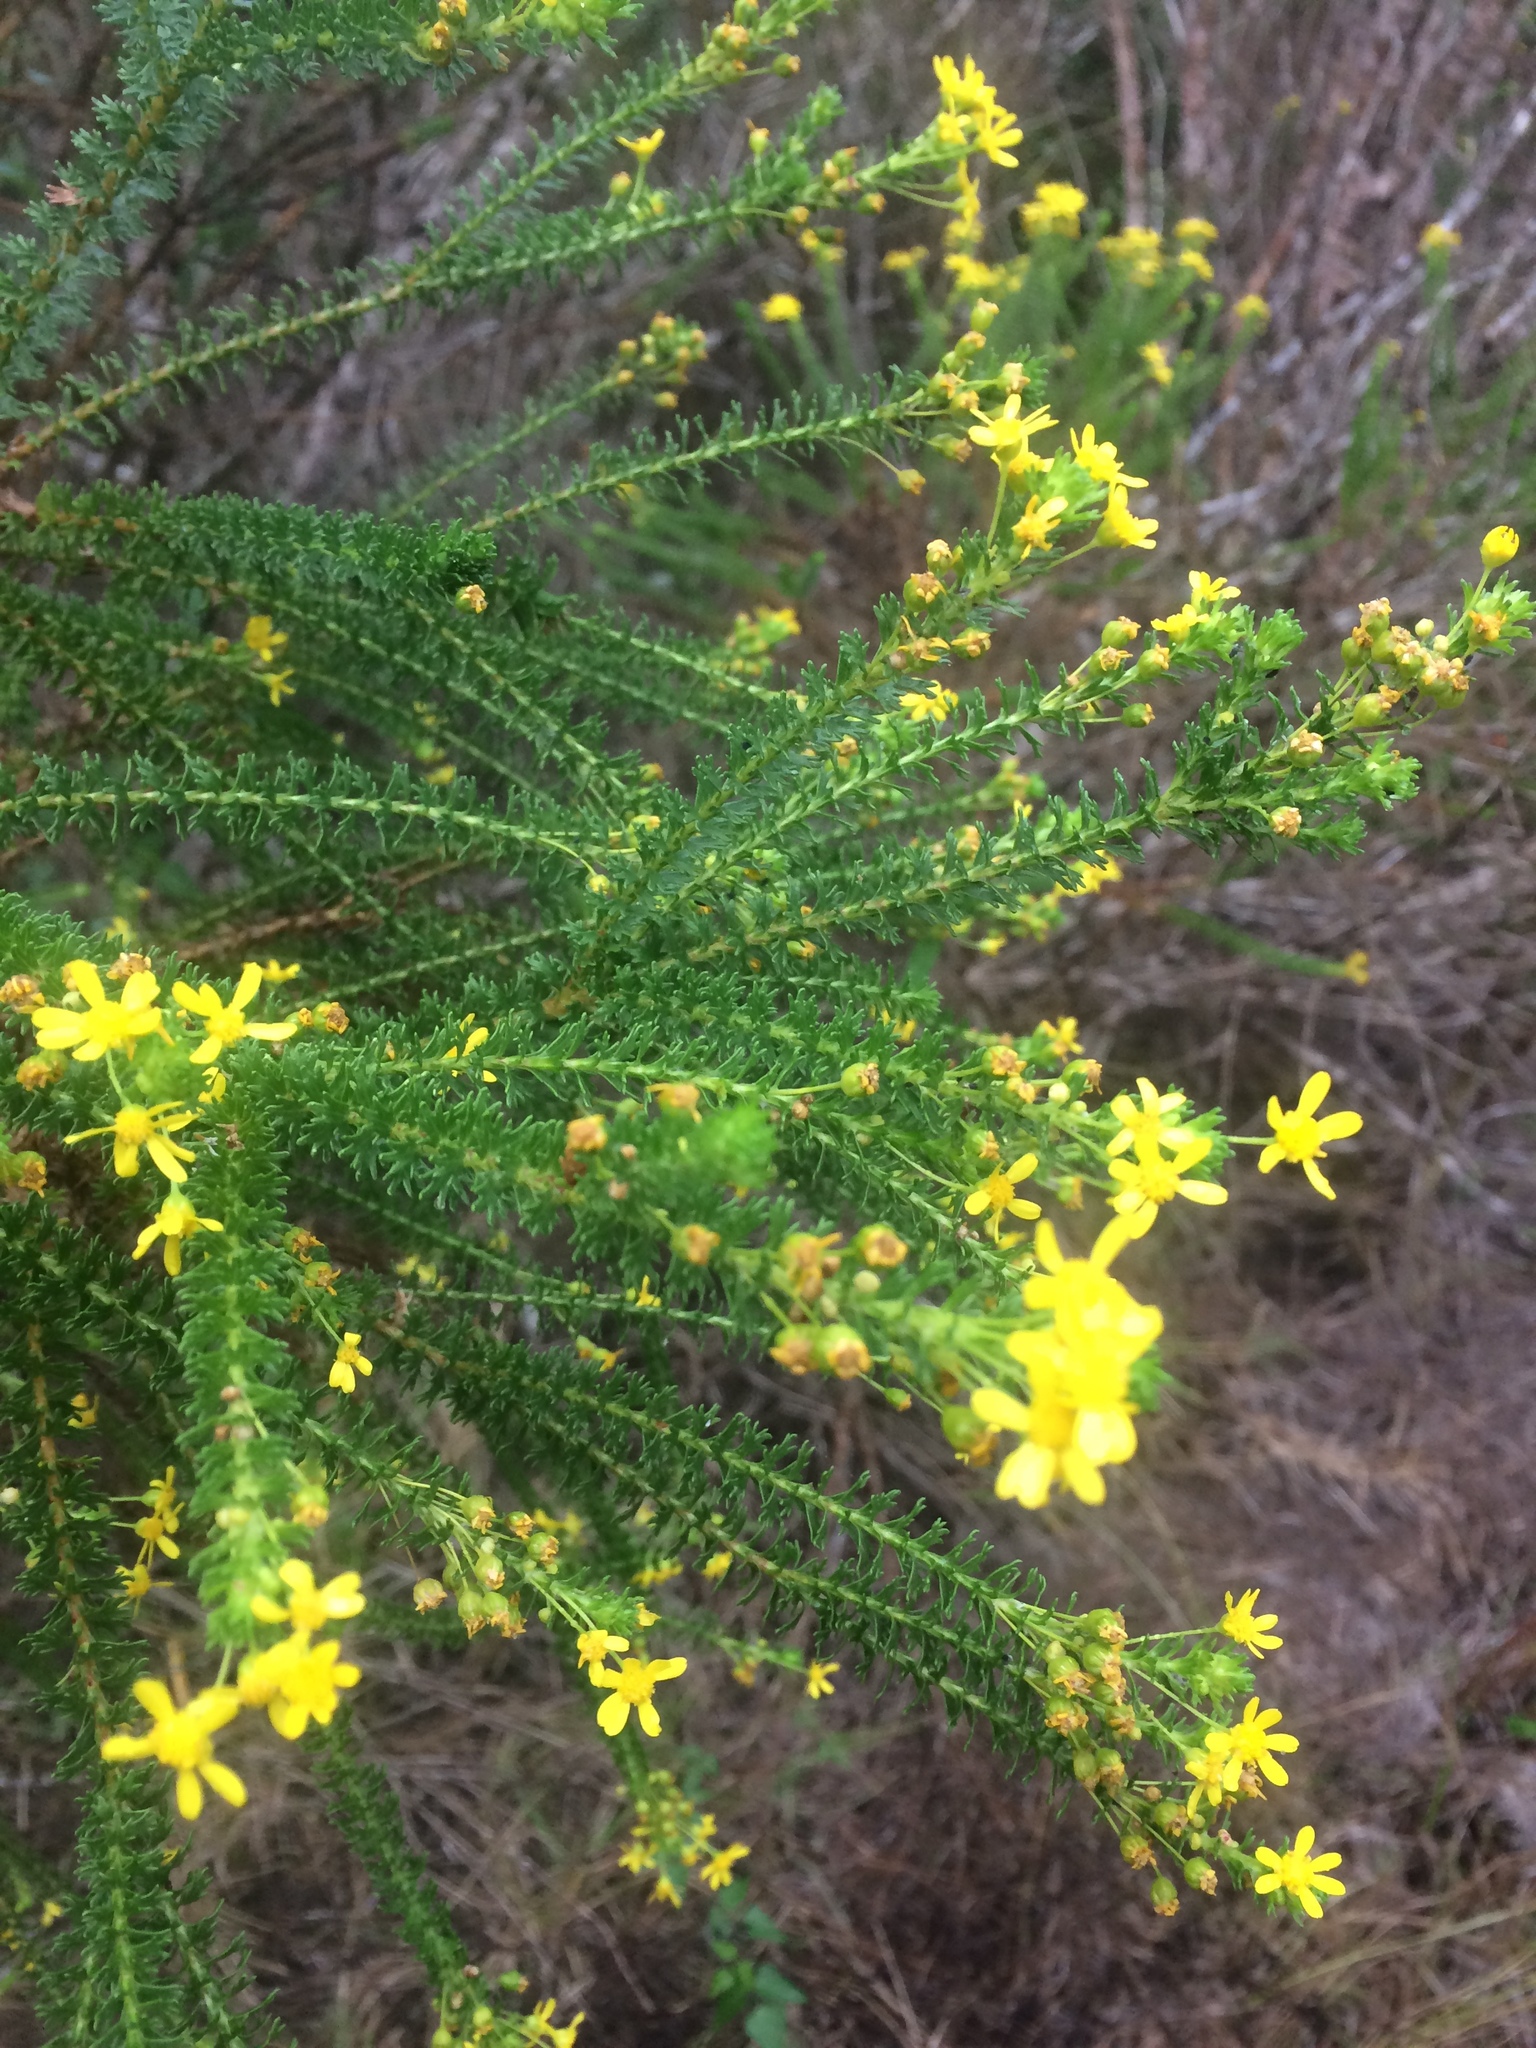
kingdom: Plantae
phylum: Tracheophyta
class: Magnoliopsida
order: Asterales
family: Asteraceae
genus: Euryops
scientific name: Euryops virgineus
